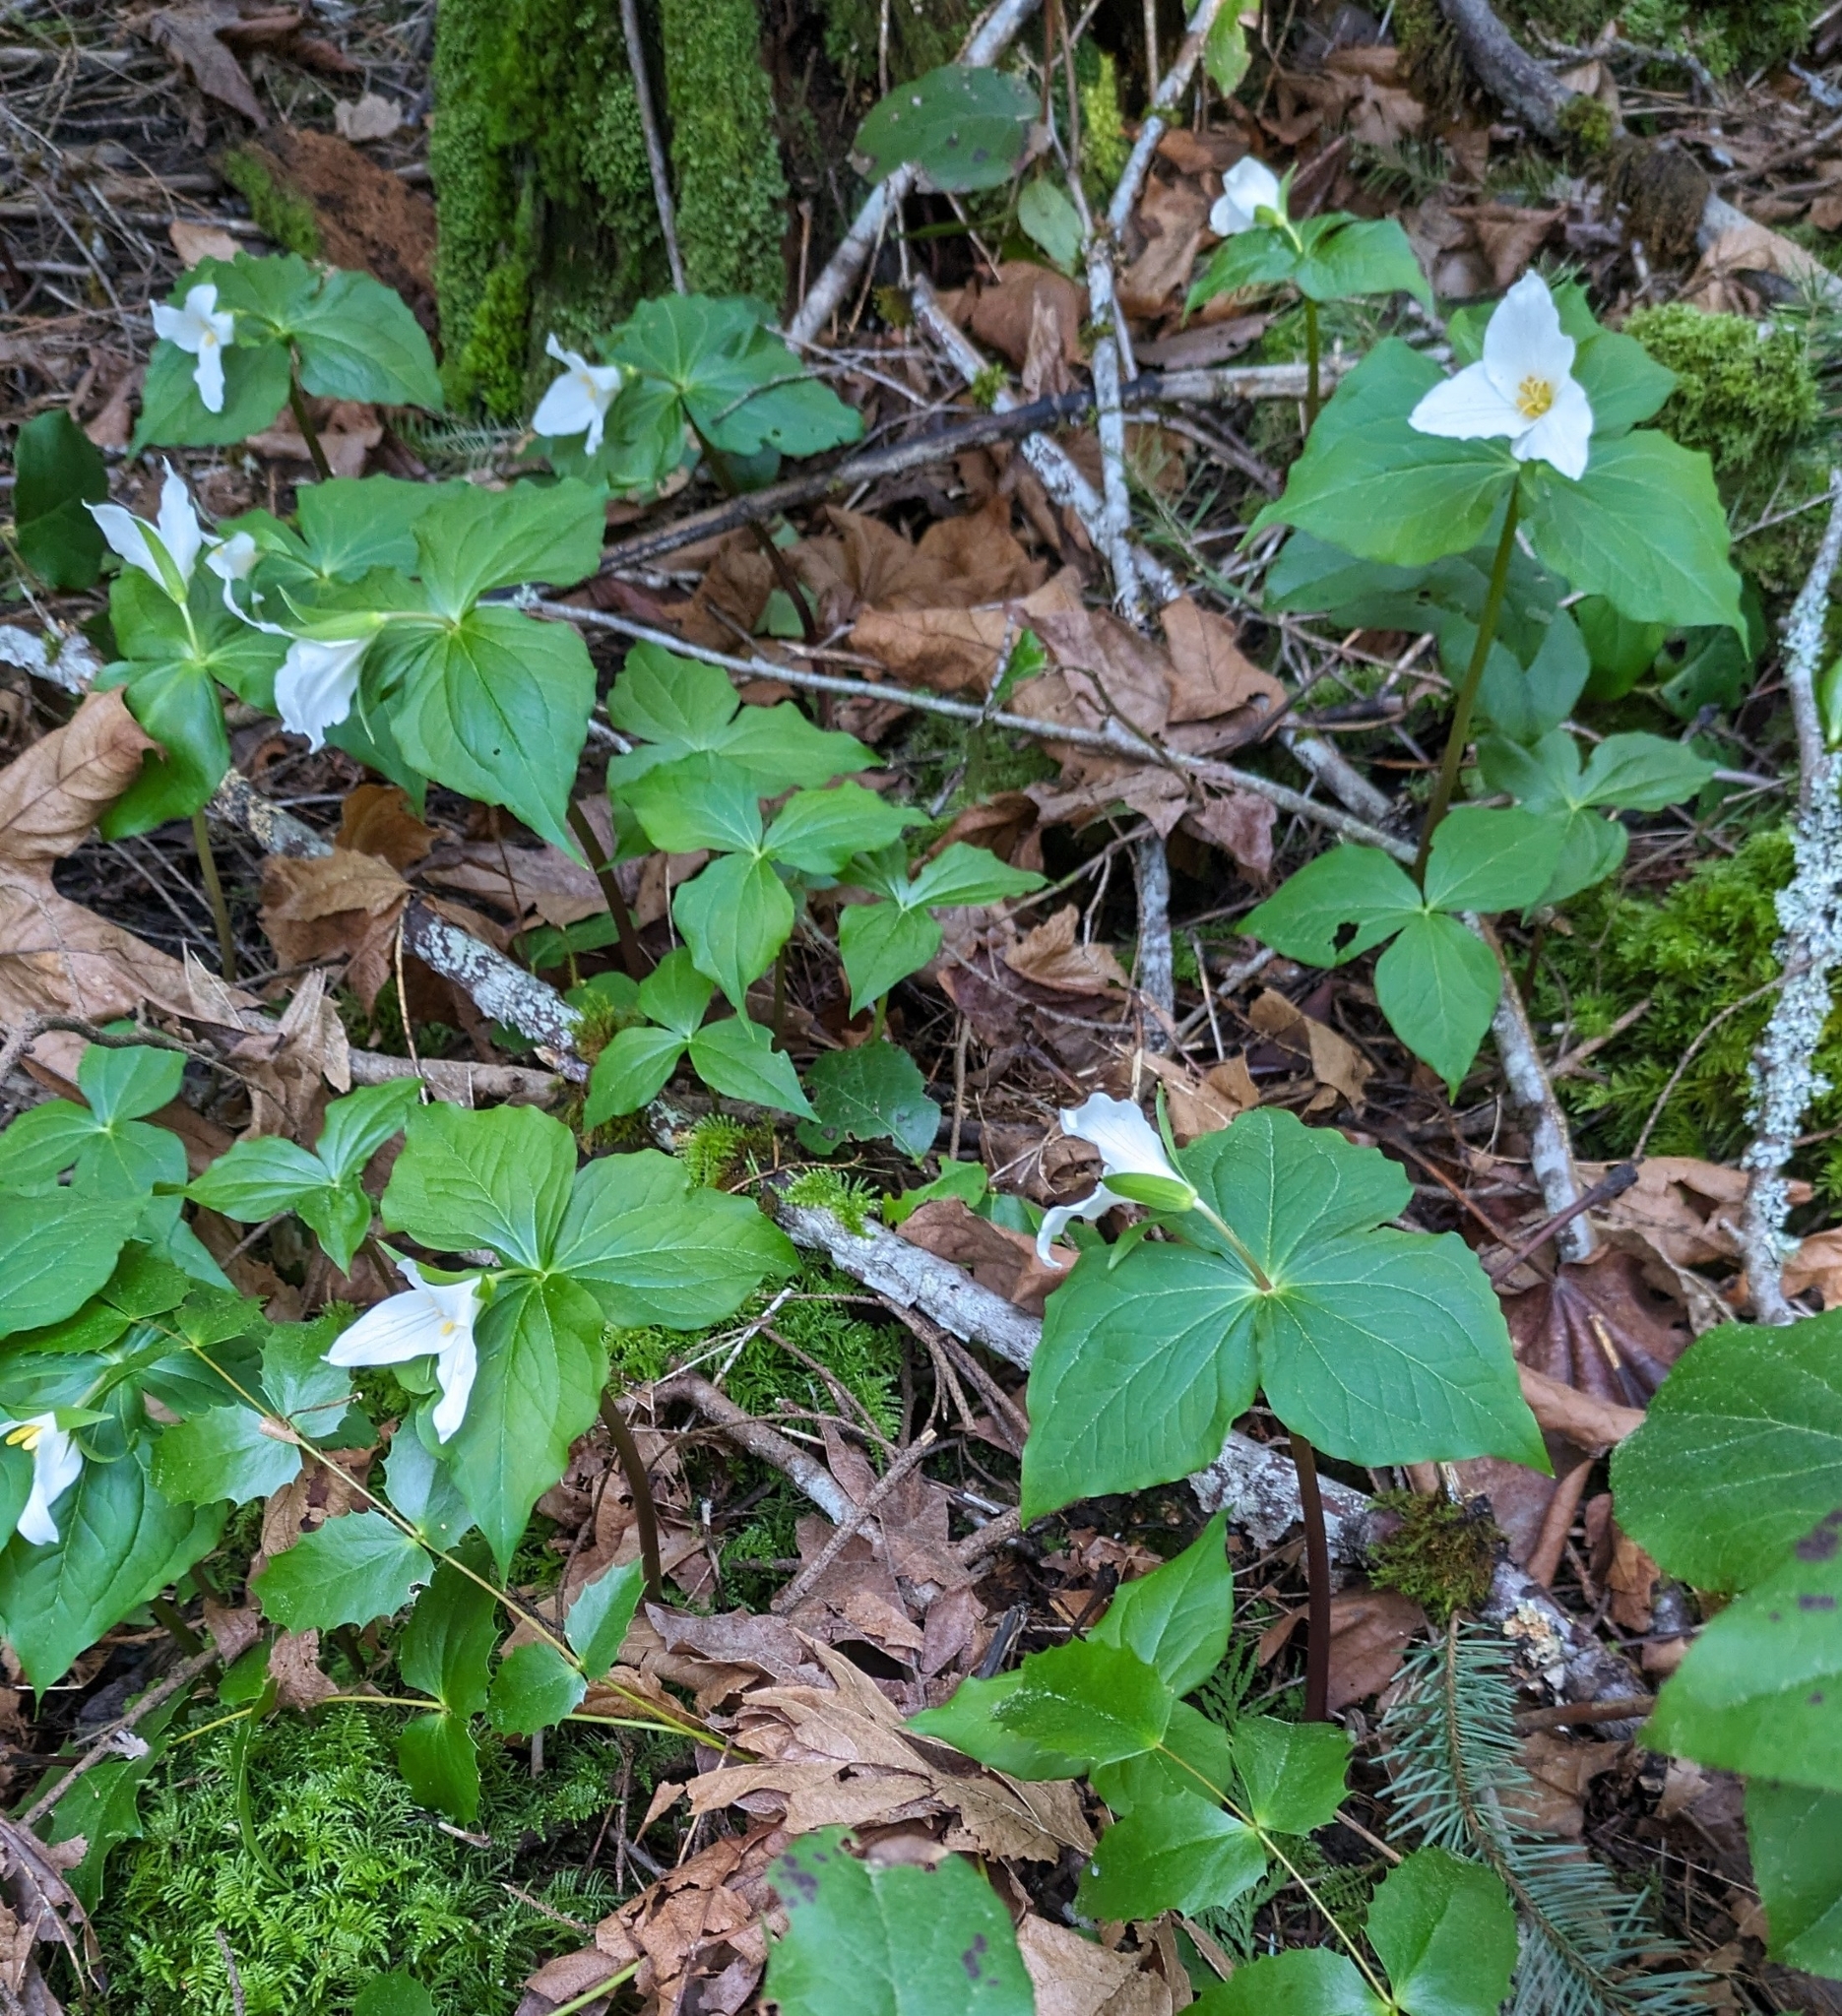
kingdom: Plantae
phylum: Tracheophyta
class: Liliopsida
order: Liliales
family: Melanthiaceae
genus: Trillium
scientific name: Trillium ovatum
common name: Pacific trillium
